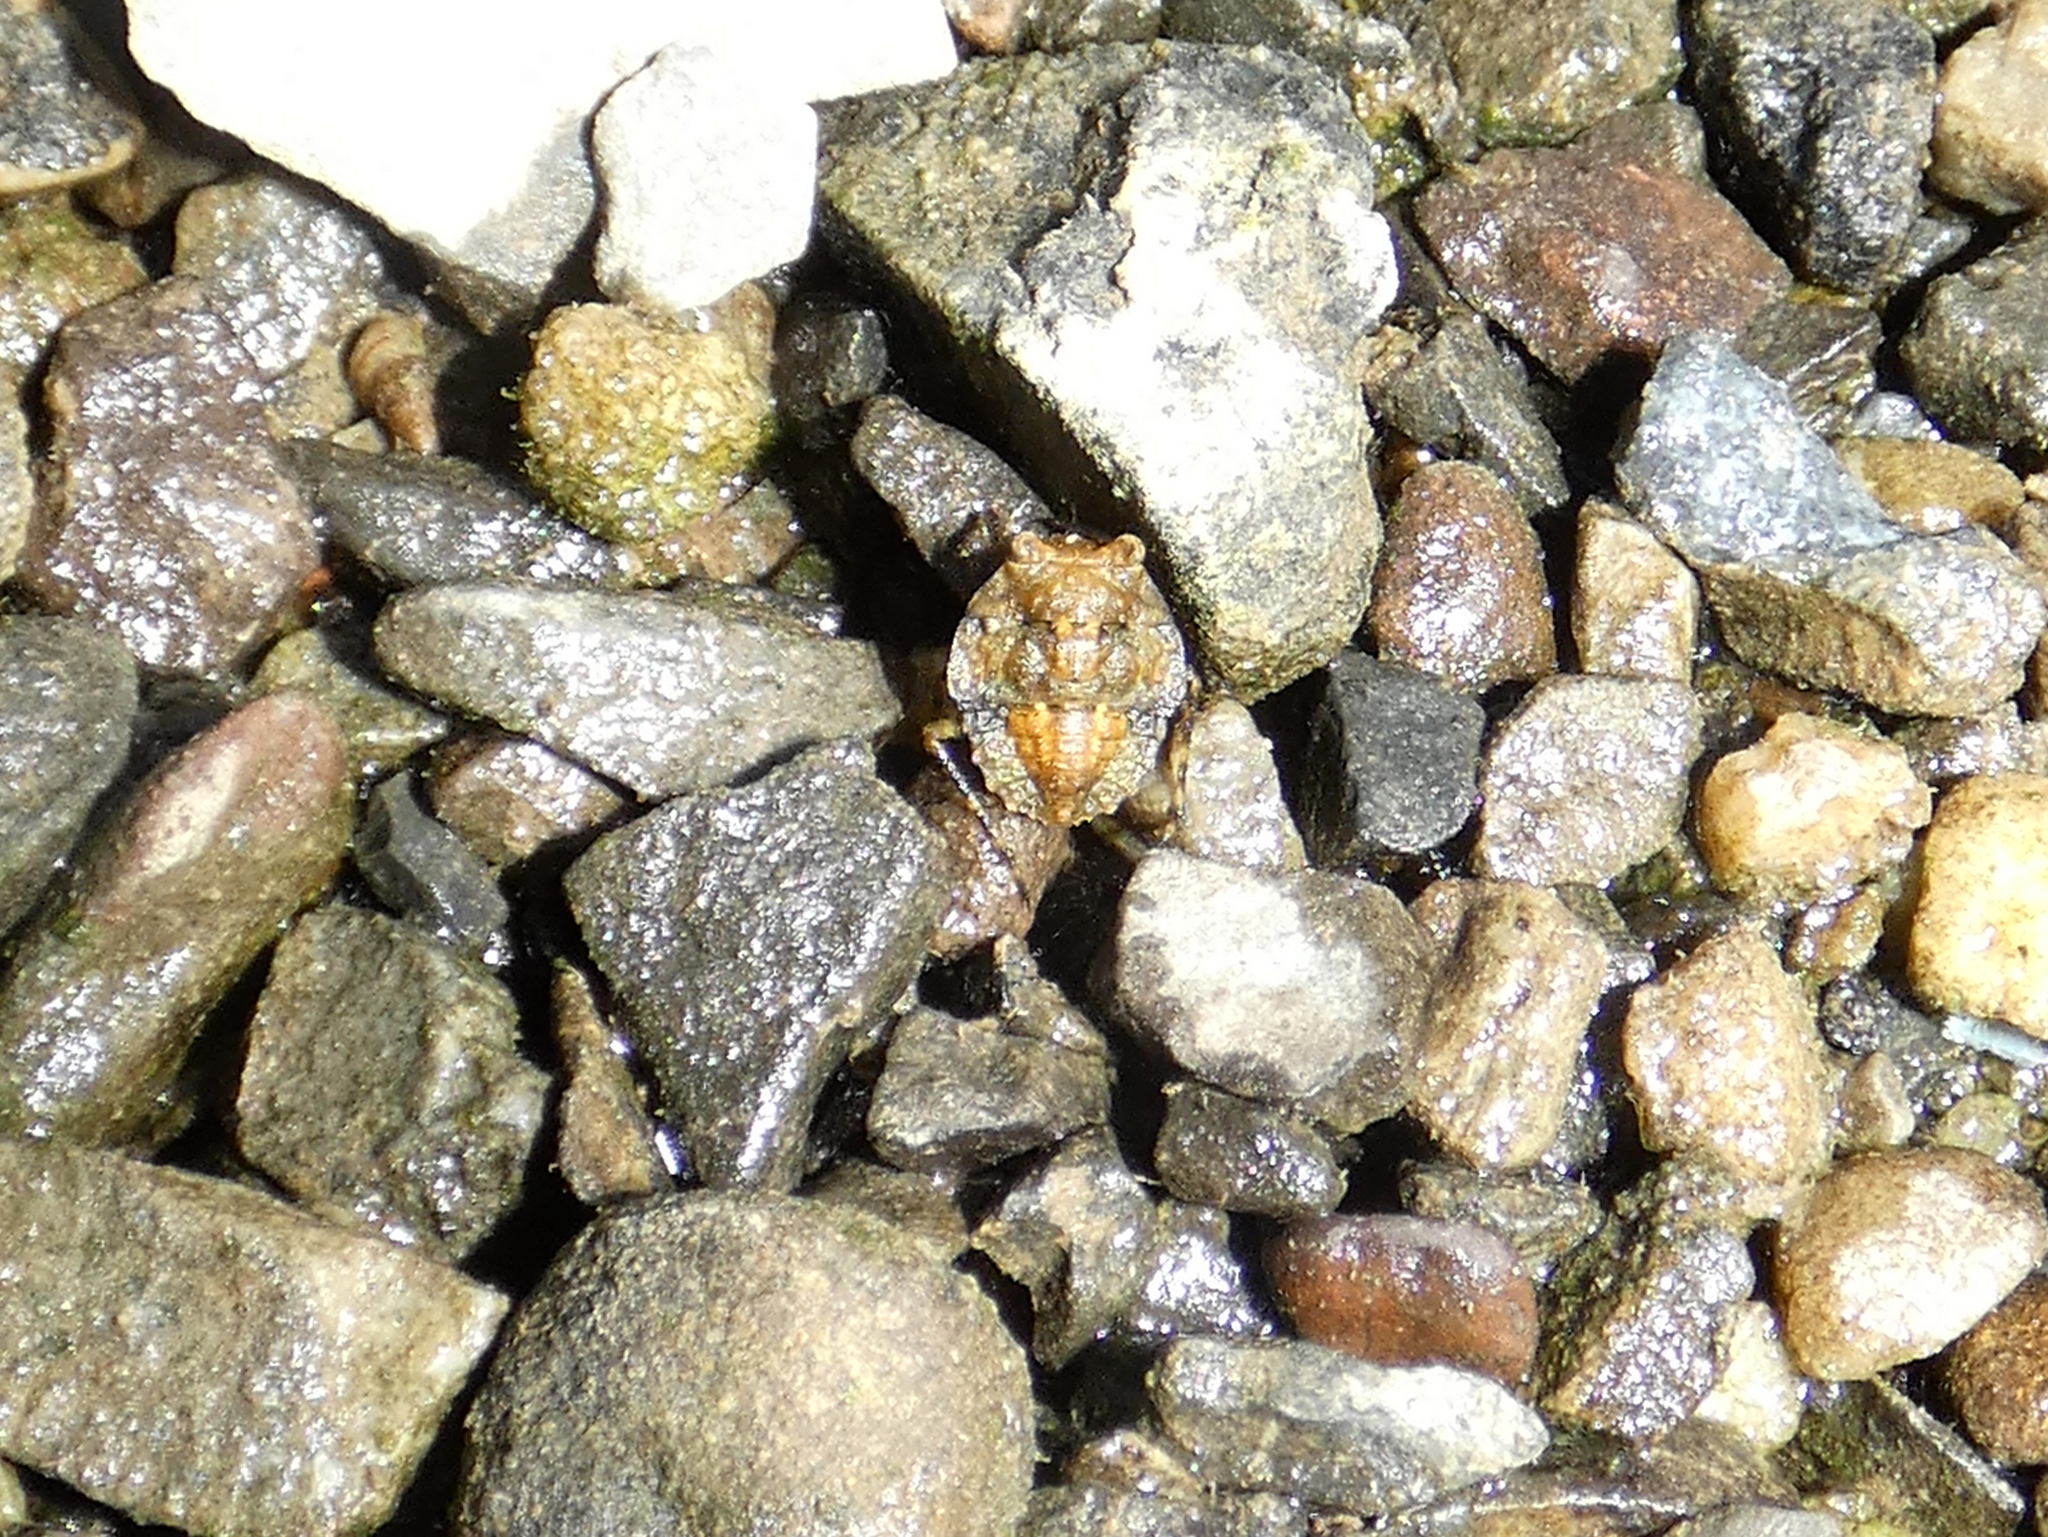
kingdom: Animalia
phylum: Arthropoda
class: Insecta
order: Hemiptera
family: Gelastocoridae
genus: Gelastocoris
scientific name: Gelastocoris oculatus
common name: Toad bug
